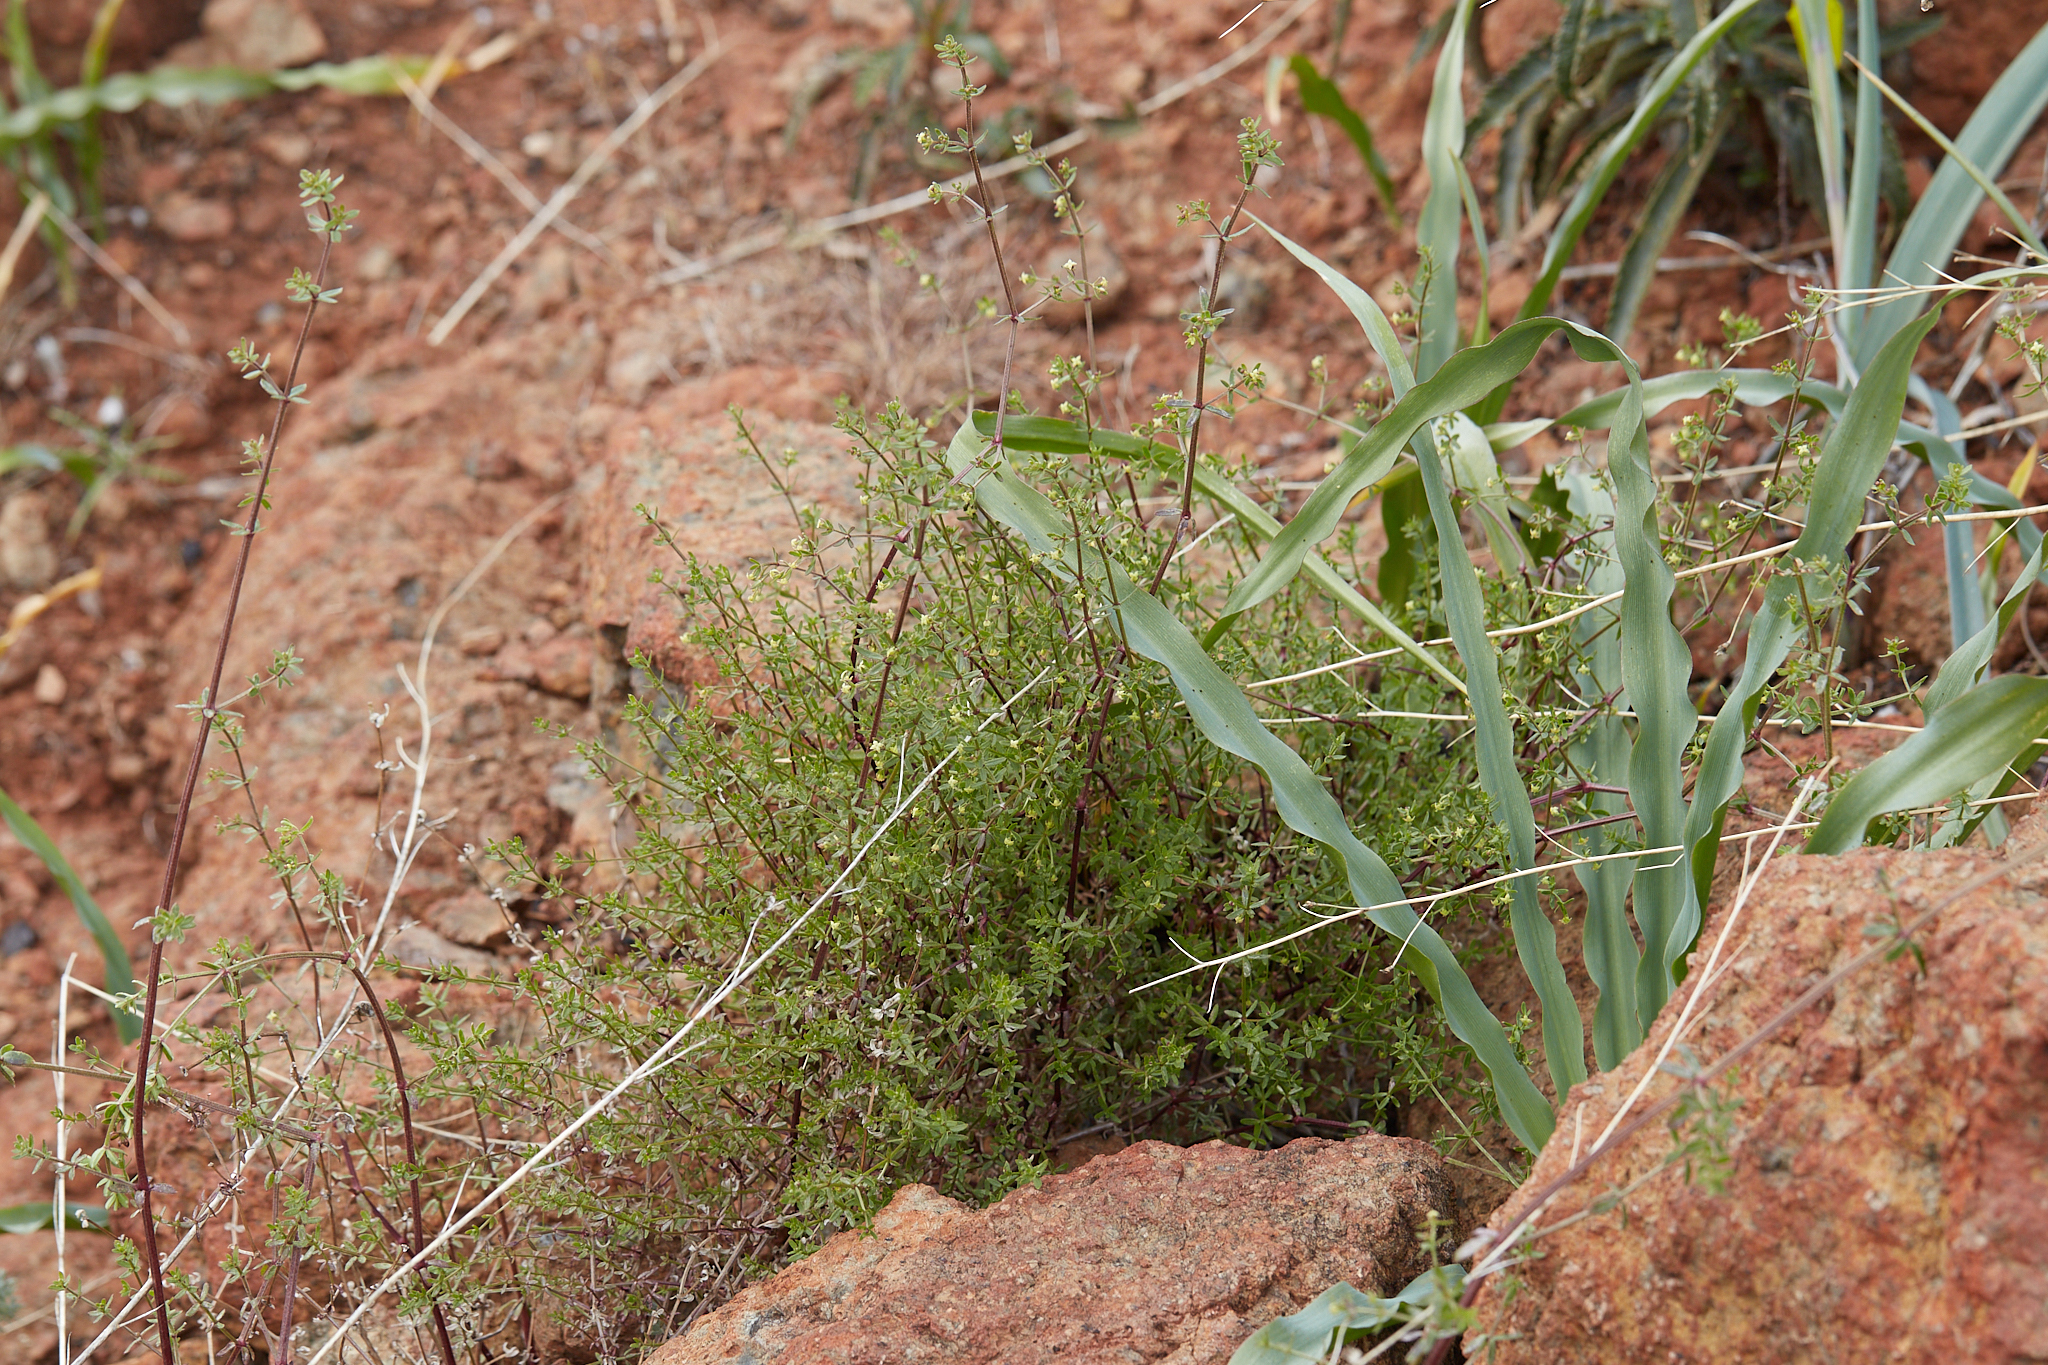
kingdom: Plantae
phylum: Tracheophyta
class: Magnoliopsida
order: Gentianales
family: Rubiaceae
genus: Galium
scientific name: Galium porrigens
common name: Climbing bedstraw
